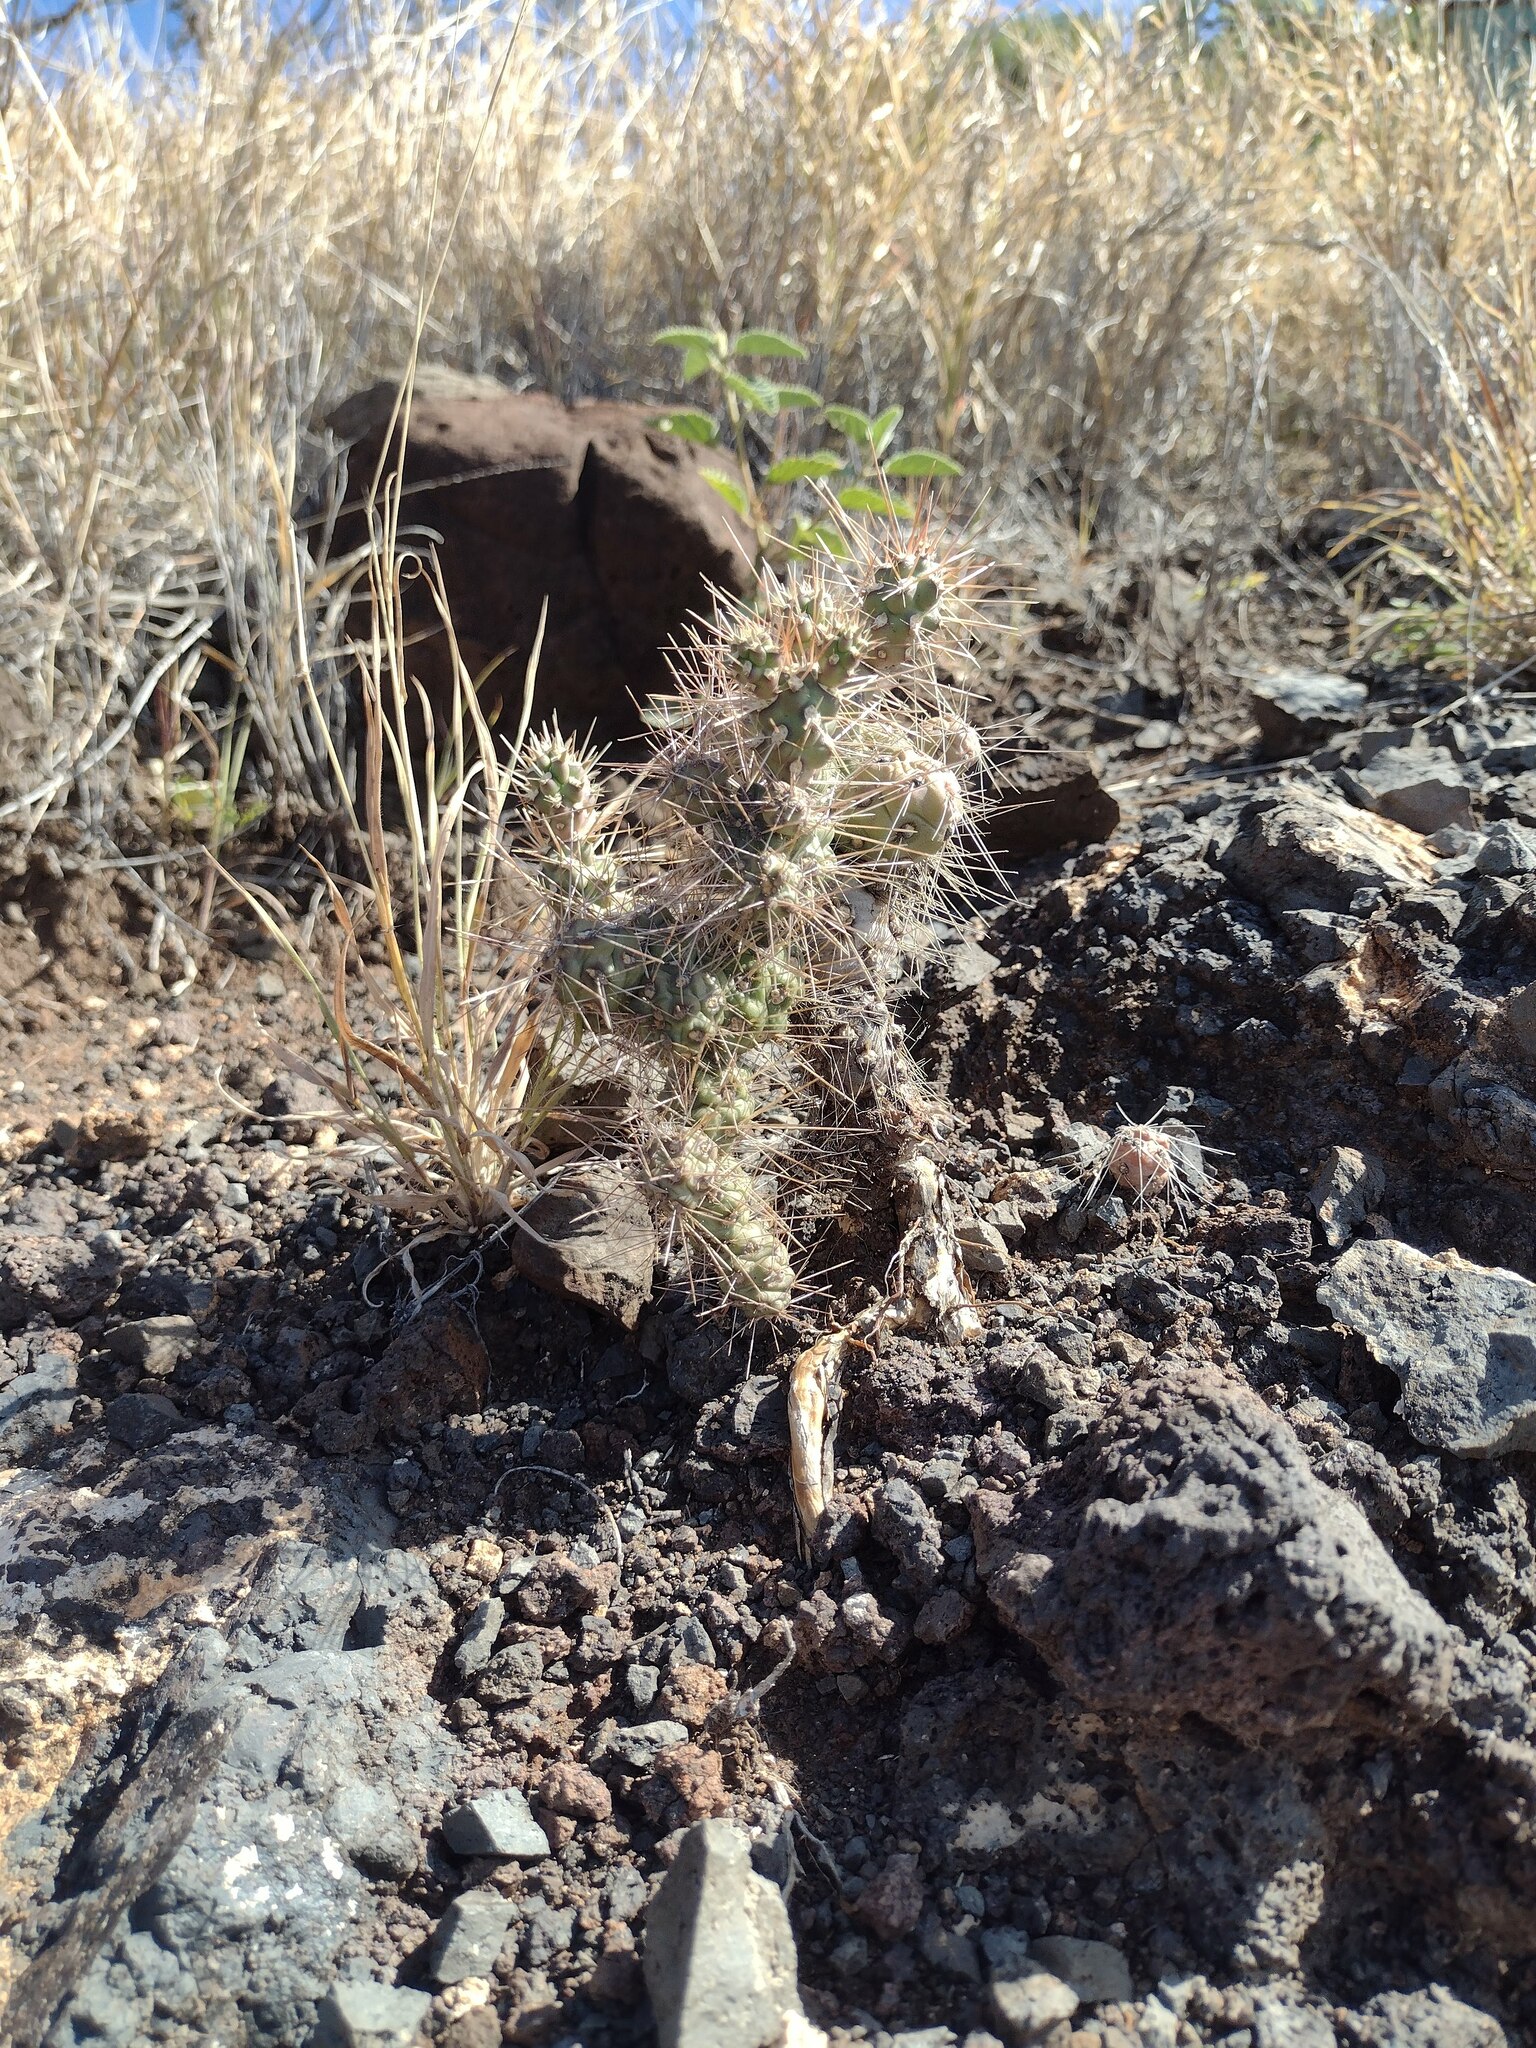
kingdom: Plantae
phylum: Tracheophyta
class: Magnoliopsida
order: Caryophyllales
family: Cactaceae
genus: Cylindropuntia
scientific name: Cylindropuntia fulgida
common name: Jumping cholla
